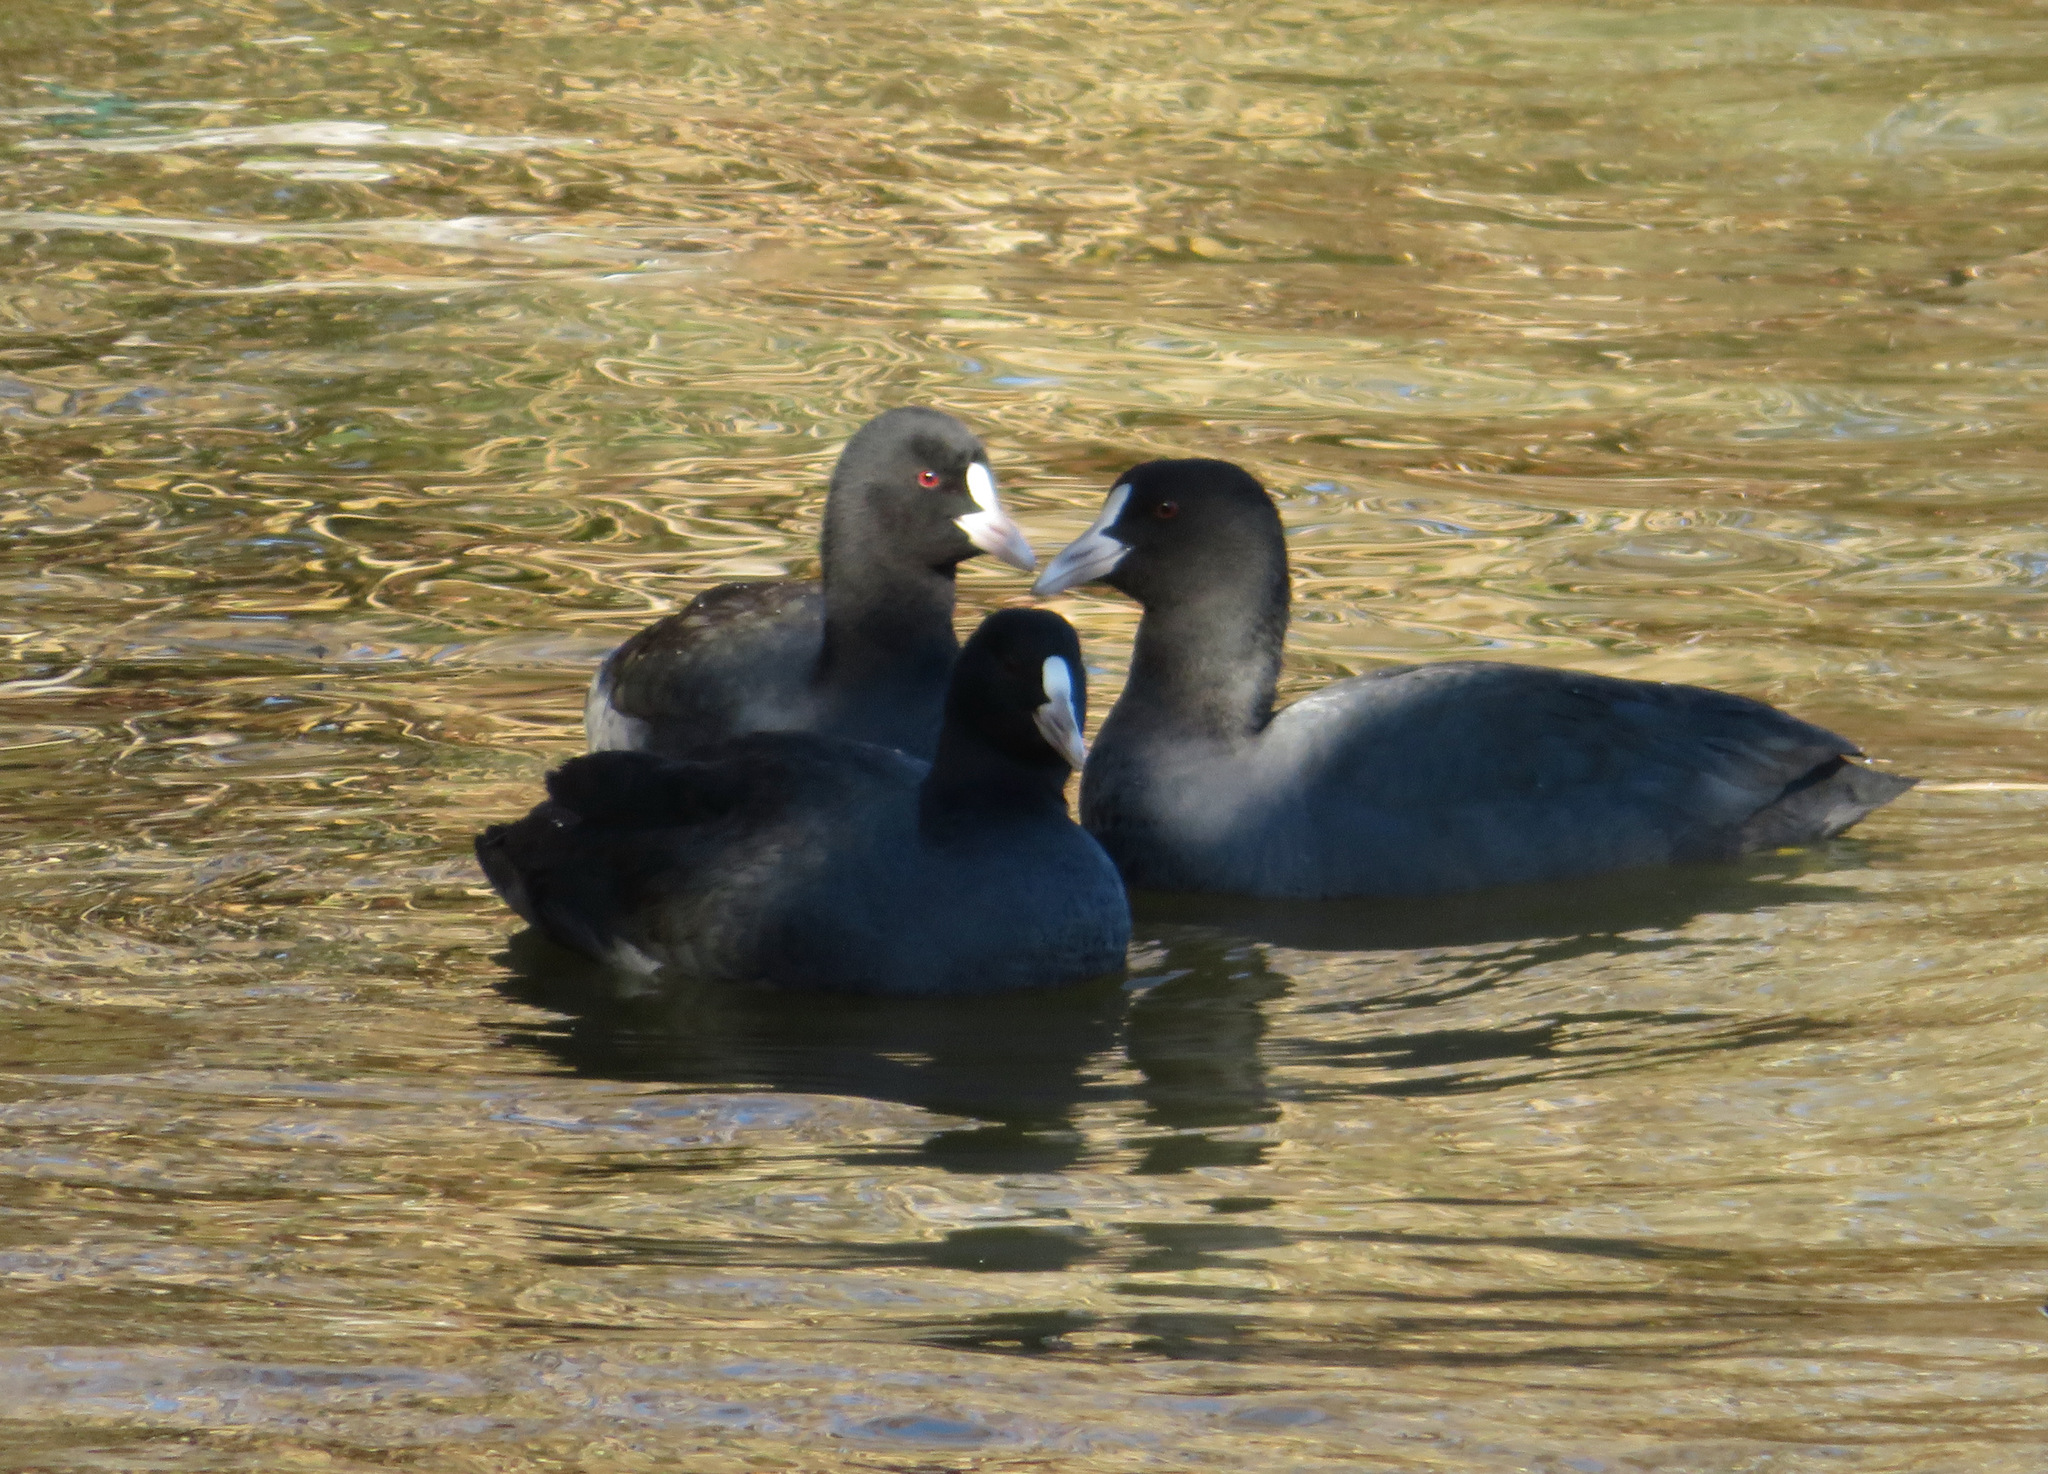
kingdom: Animalia
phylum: Chordata
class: Aves
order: Gruiformes
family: Rallidae
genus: Fulica
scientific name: Fulica atra
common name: Eurasian coot
